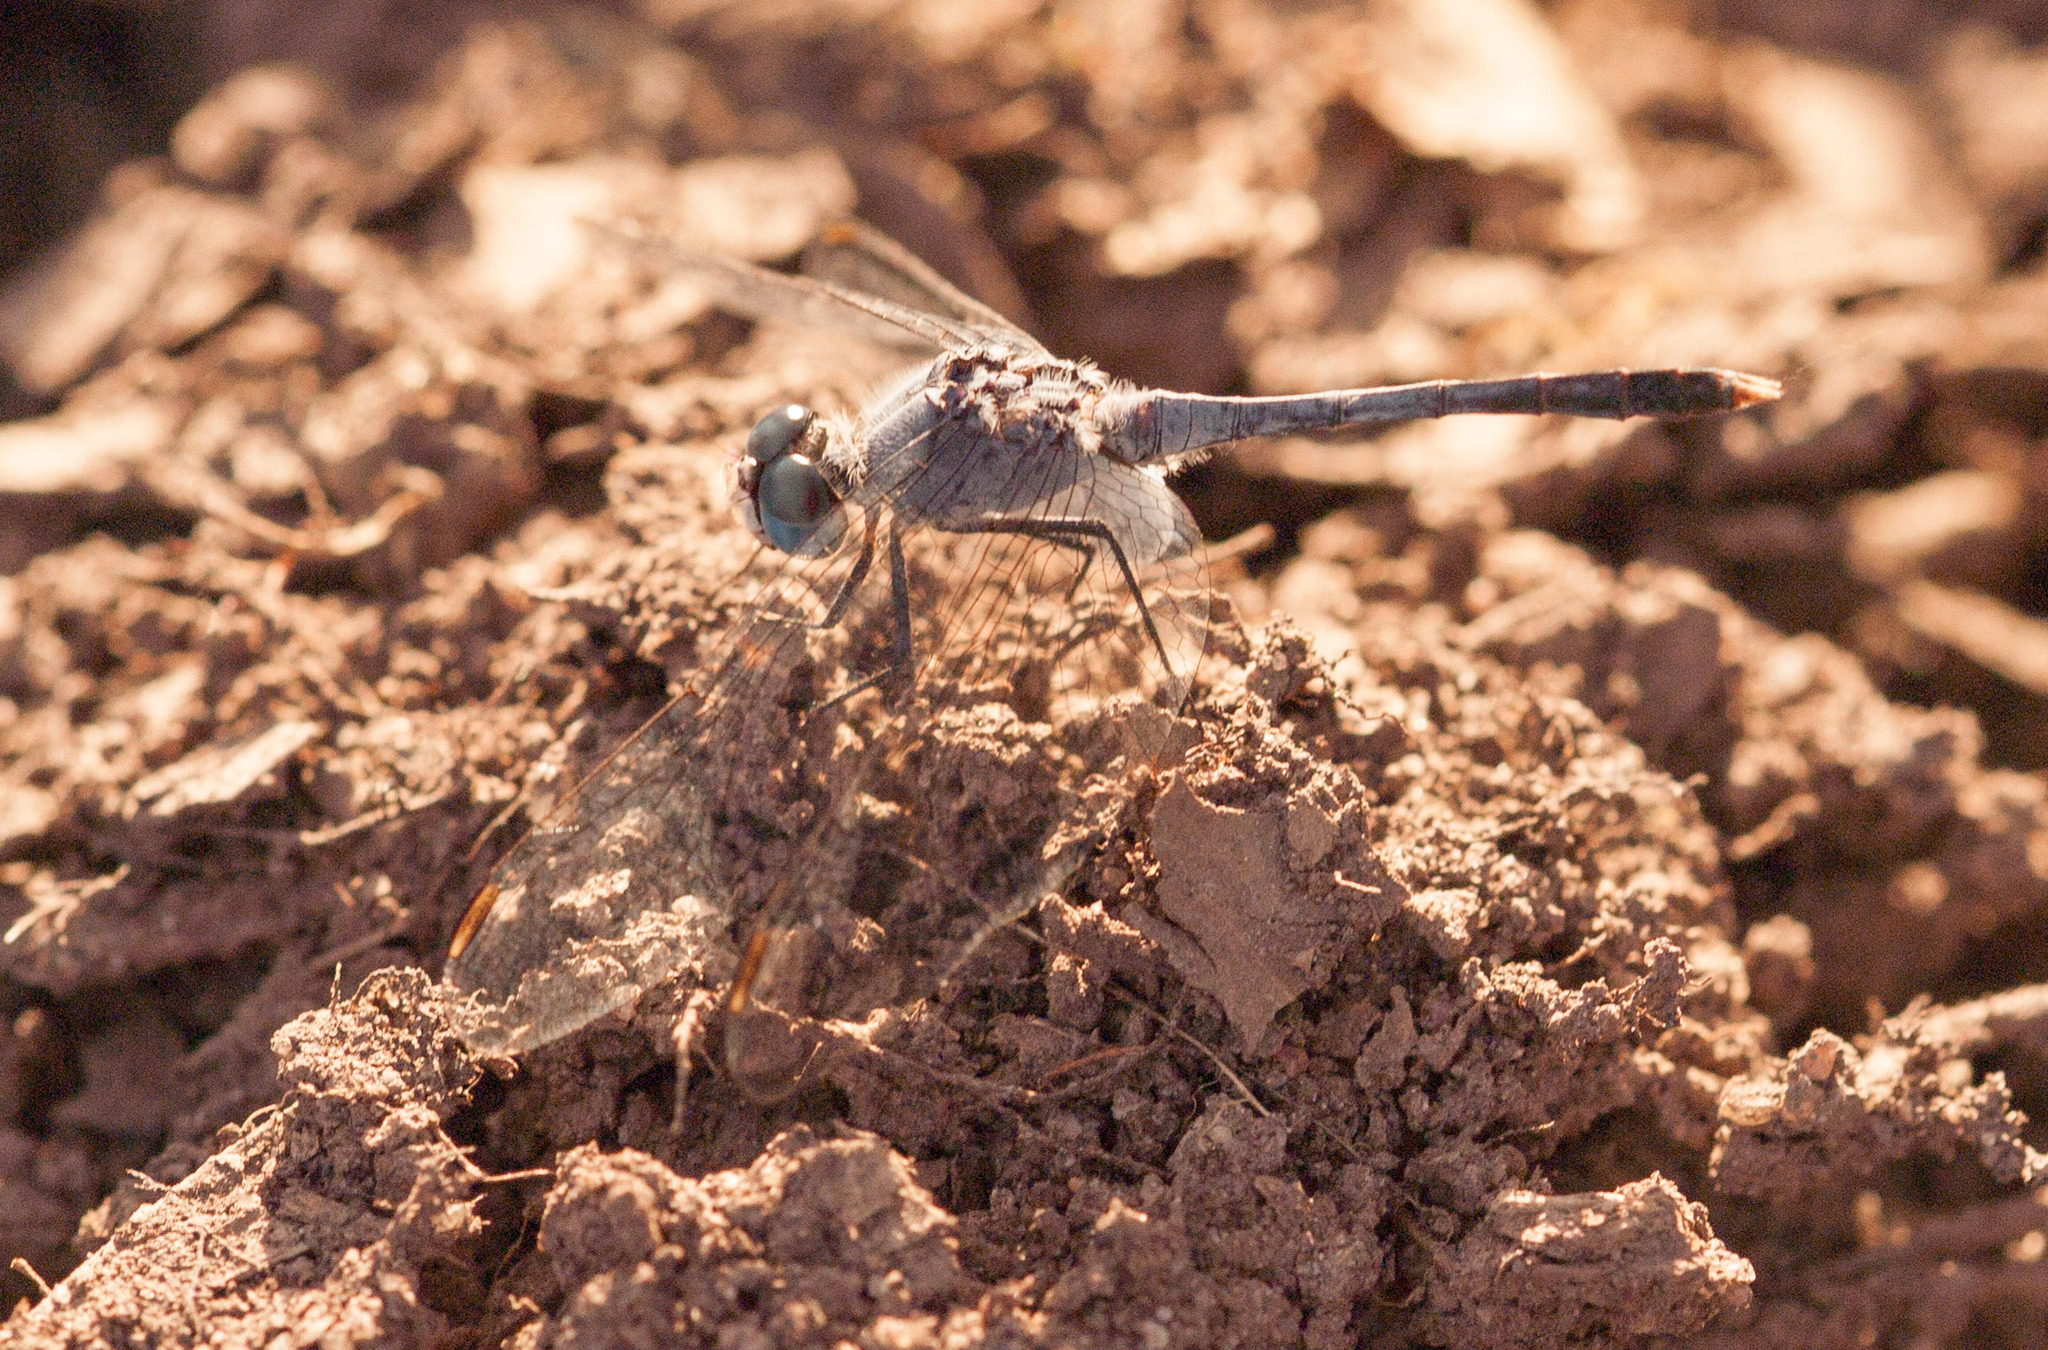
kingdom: Animalia
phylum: Arthropoda
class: Insecta
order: Odonata
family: Libellulidae
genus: Diplacodes
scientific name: Diplacodes trivialis
